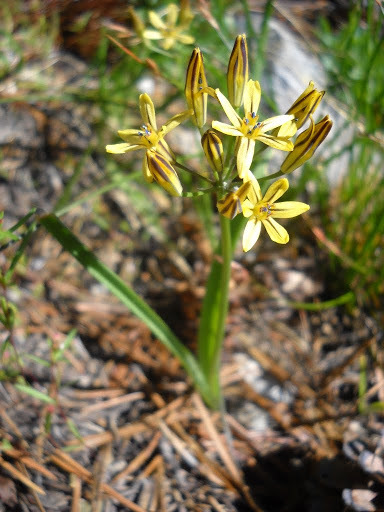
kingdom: Plantae
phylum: Tracheophyta
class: Liliopsida
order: Asparagales
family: Asparagaceae
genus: Triteleia
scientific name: Triteleia ixioides
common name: Yellow-brodiaea
